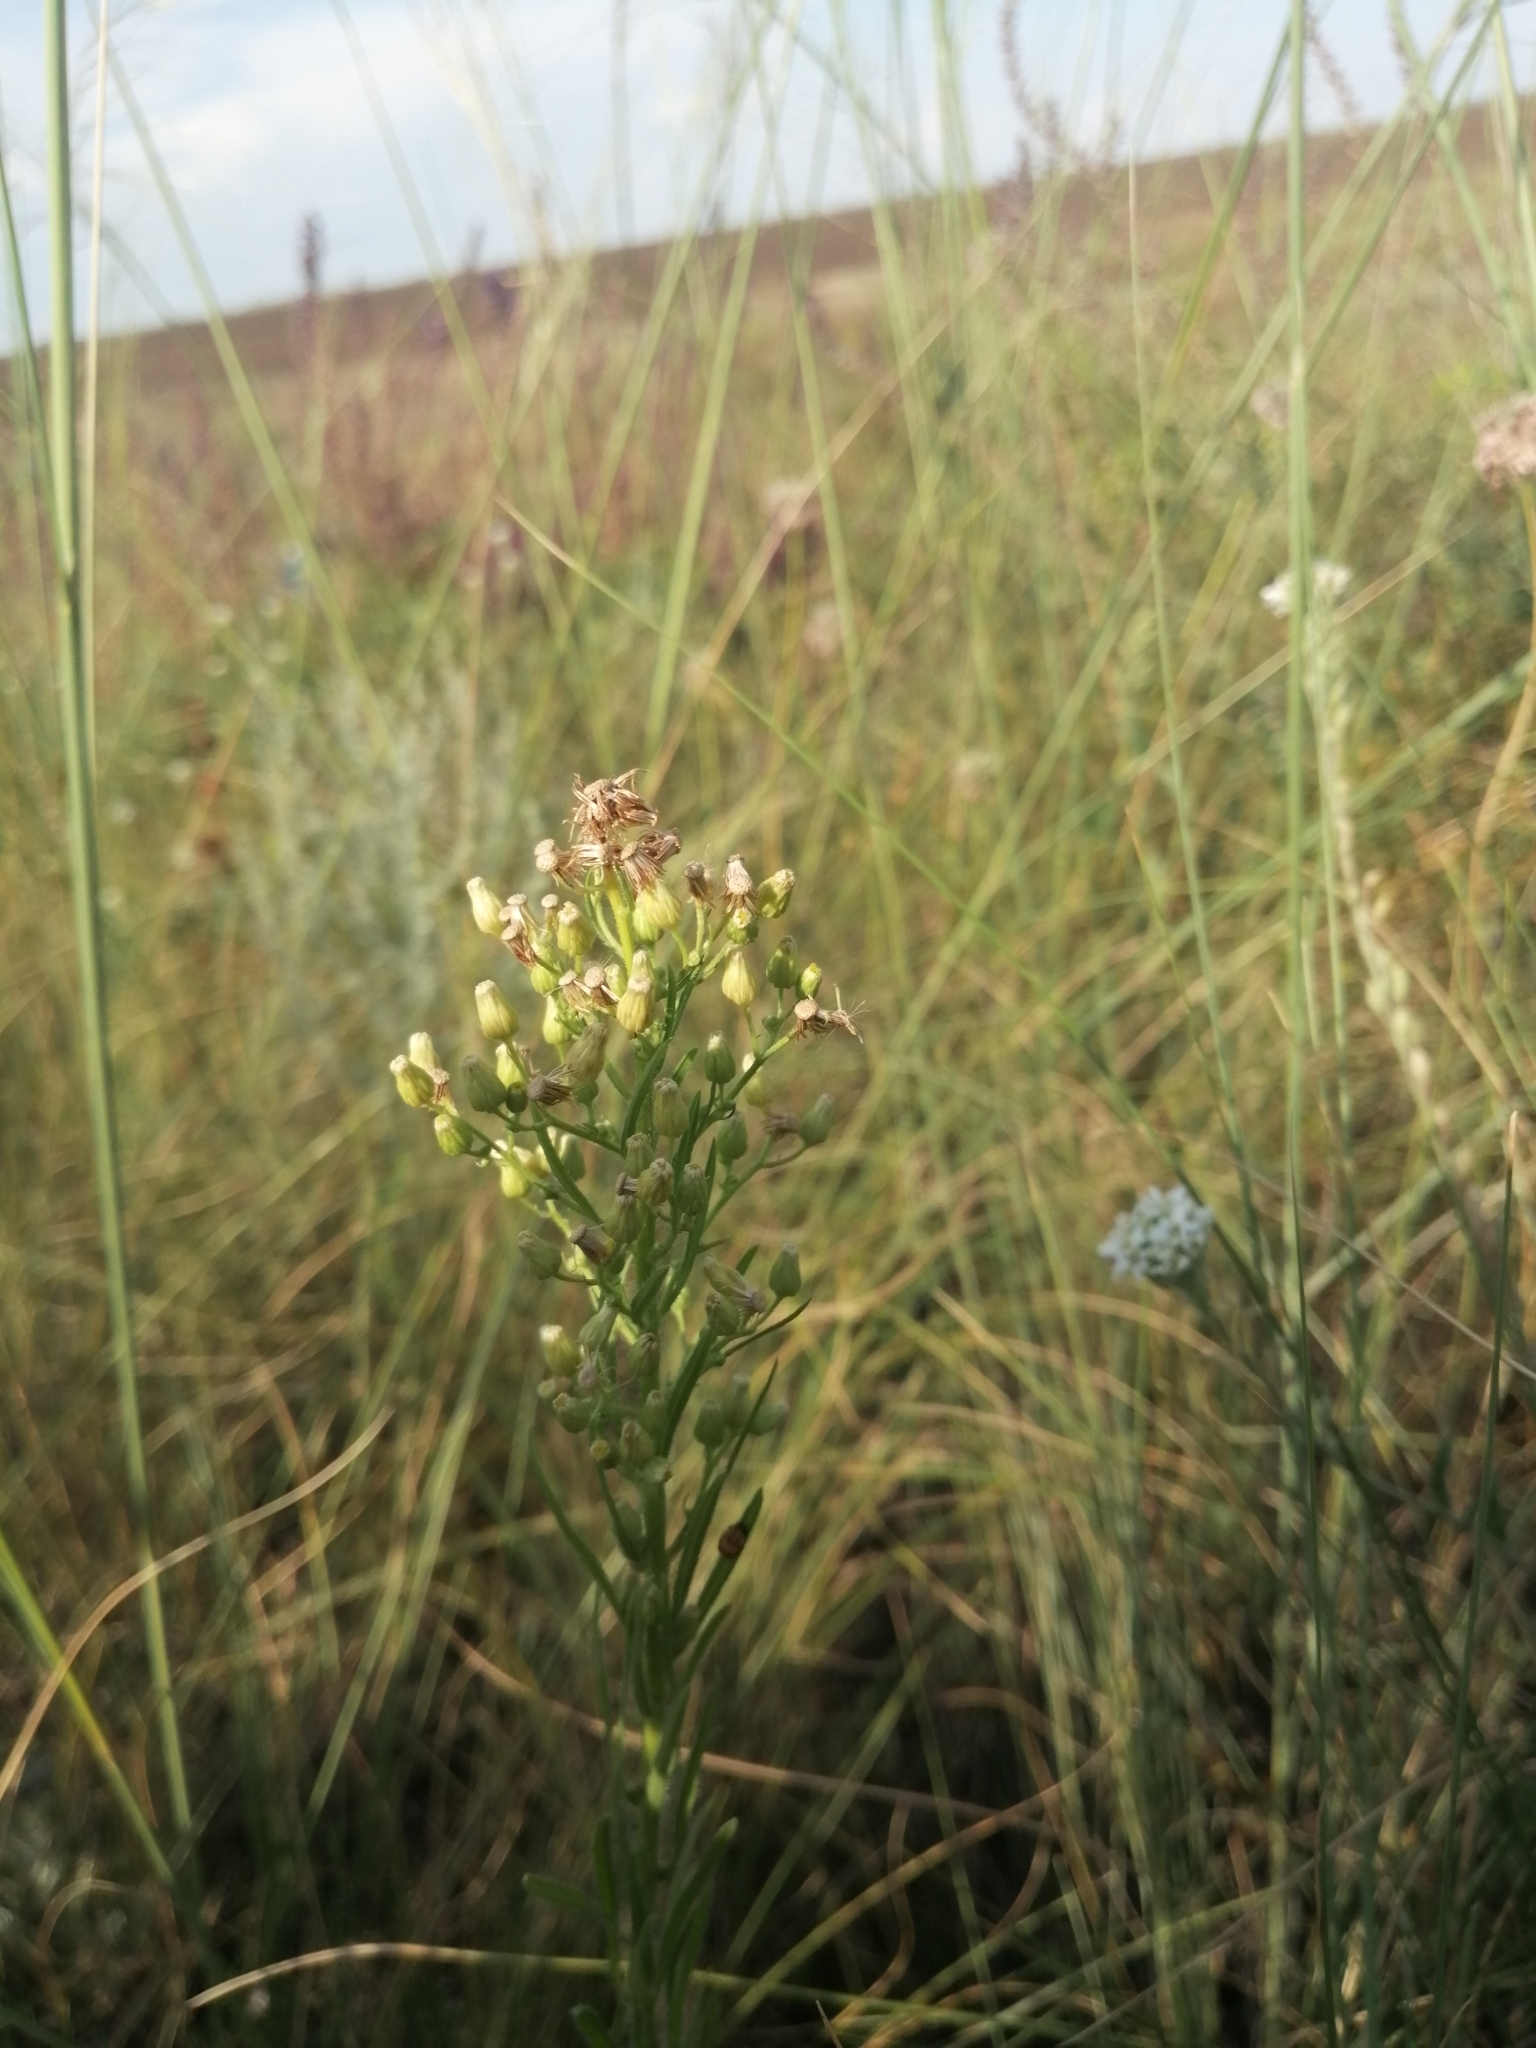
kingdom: Plantae
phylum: Tracheophyta
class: Magnoliopsida
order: Asterales
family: Asteraceae
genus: Erigeron
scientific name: Erigeron canadensis
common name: Canadian fleabane
